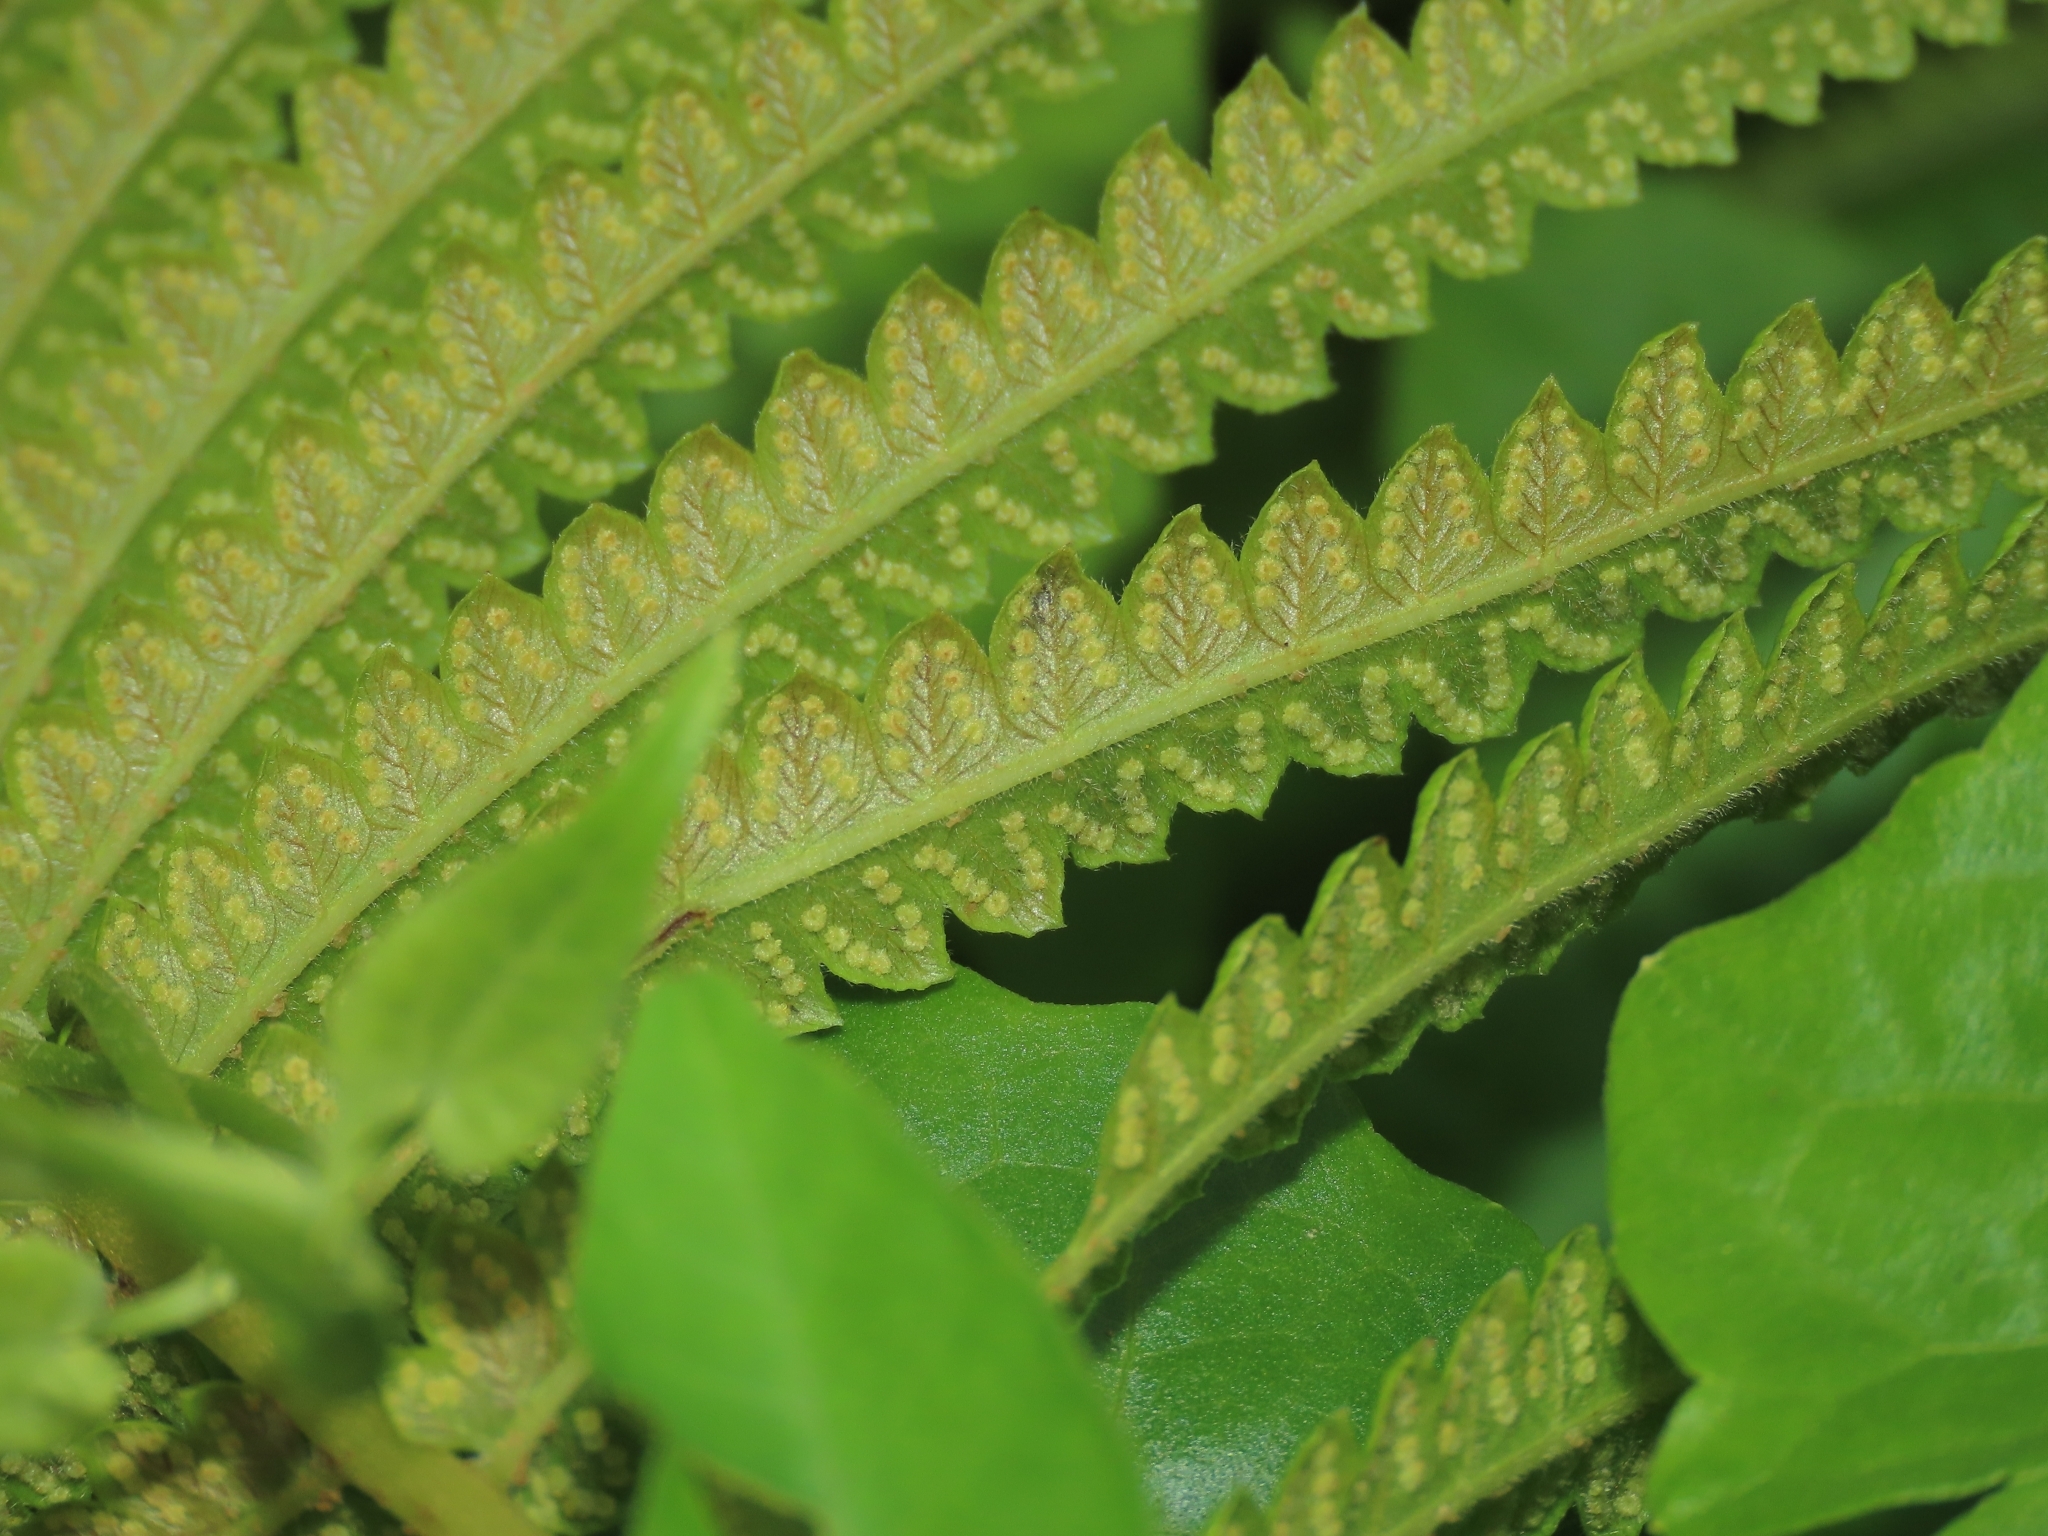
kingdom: Plantae
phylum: Tracheophyta
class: Polypodiopsida
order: Polypodiales
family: Thelypteridaceae
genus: Cyclosorus
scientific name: Cyclosorus interruptus
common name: Neke fern
